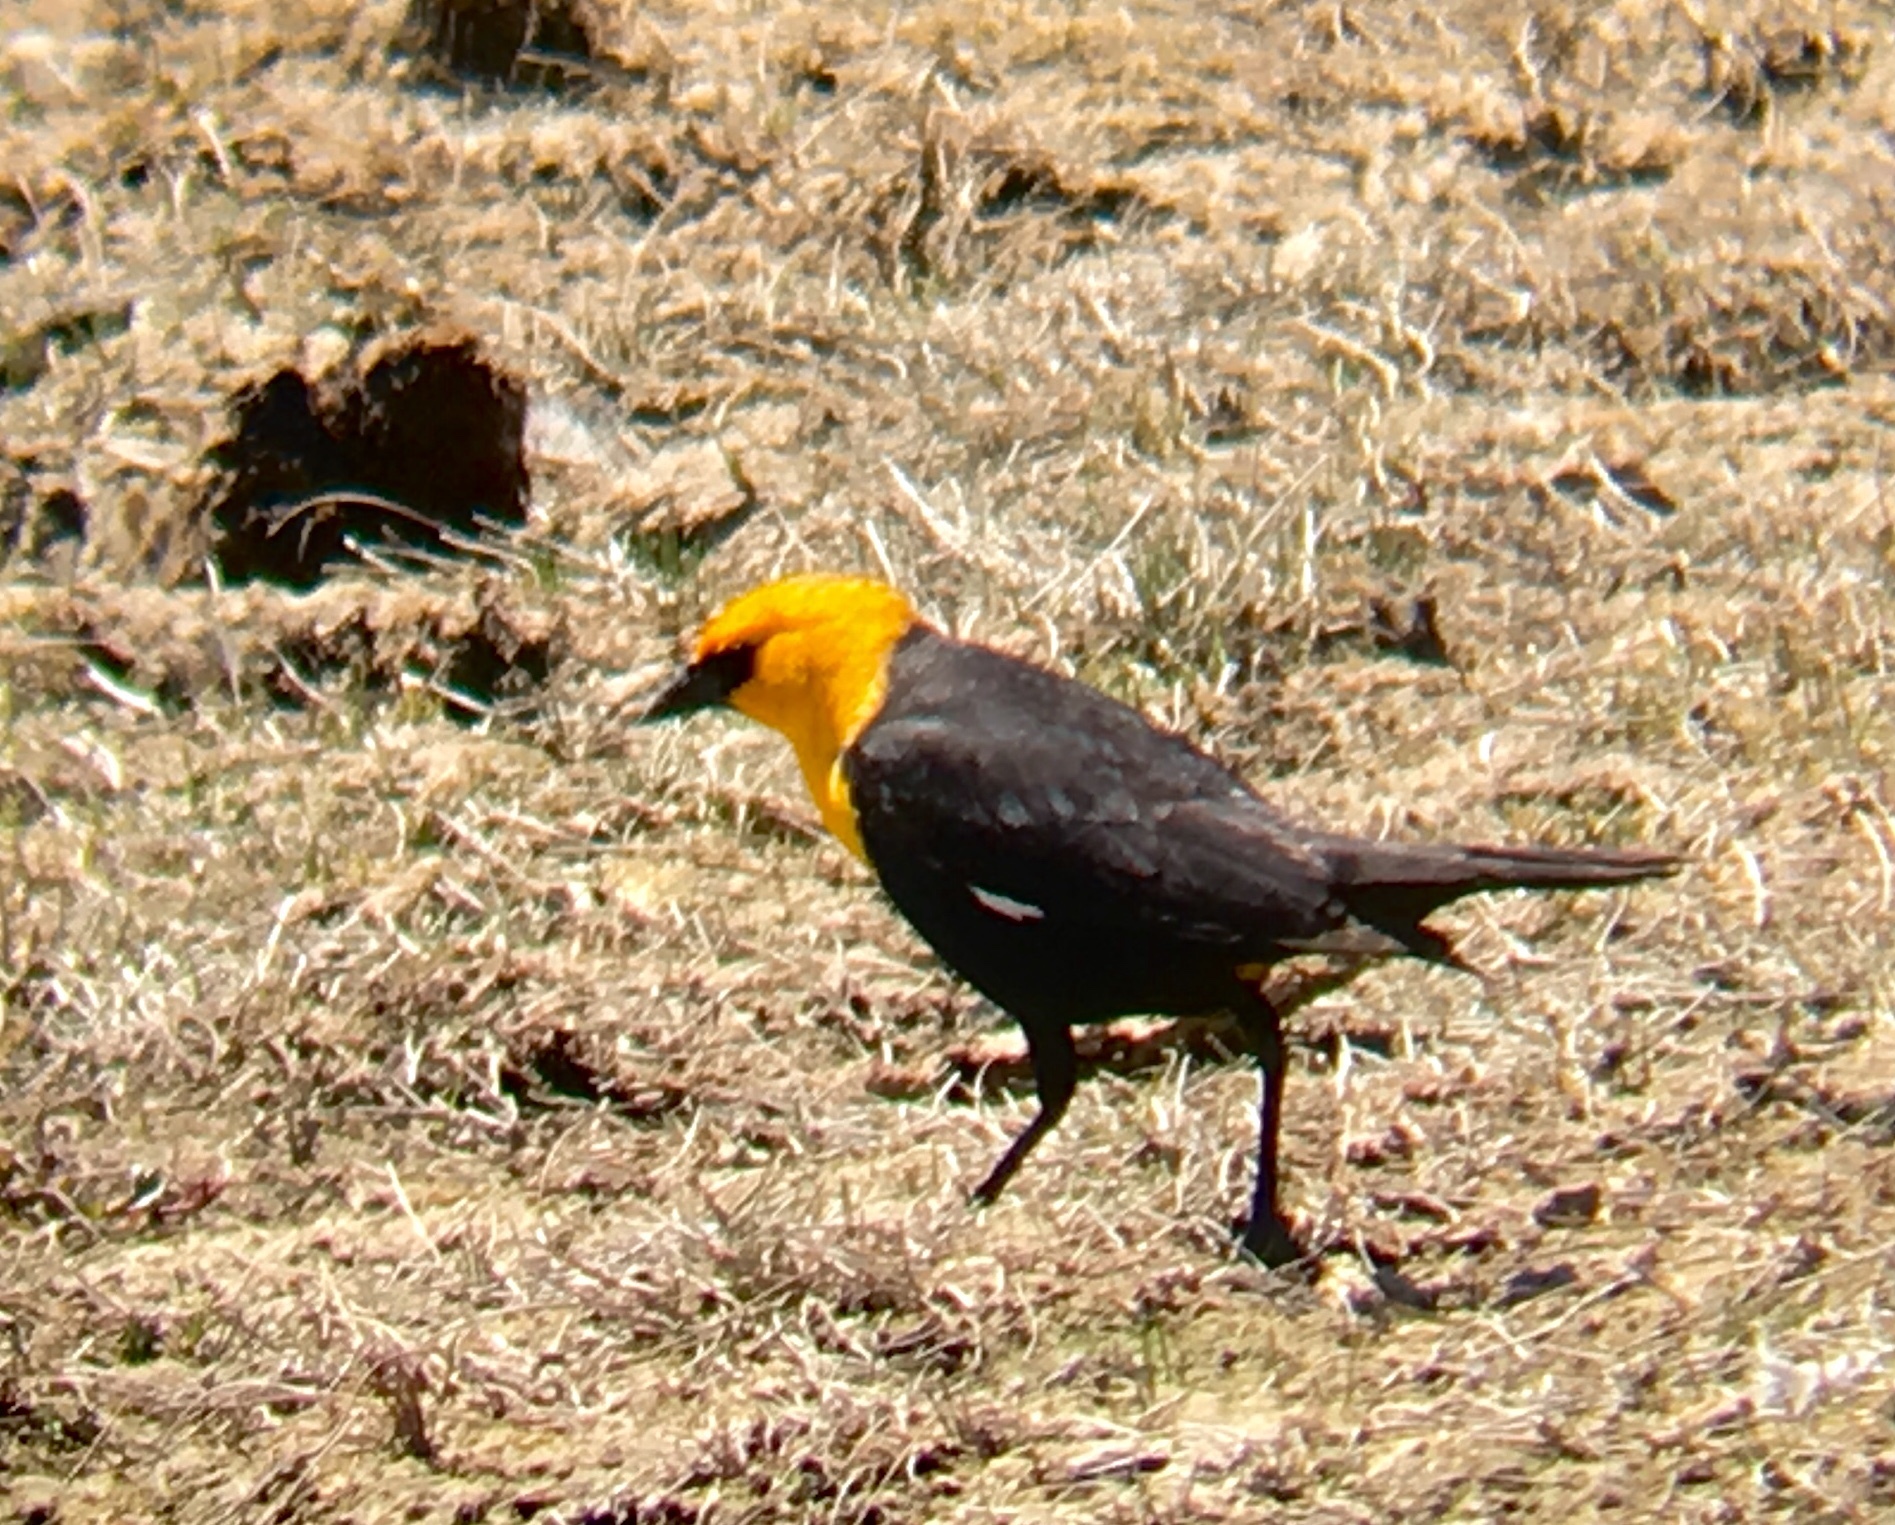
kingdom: Animalia
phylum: Chordata
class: Aves
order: Passeriformes
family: Icteridae
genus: Xanthocephalus
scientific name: Xanthocephalus xanthocephalus
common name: Yellow-headed blackbird
